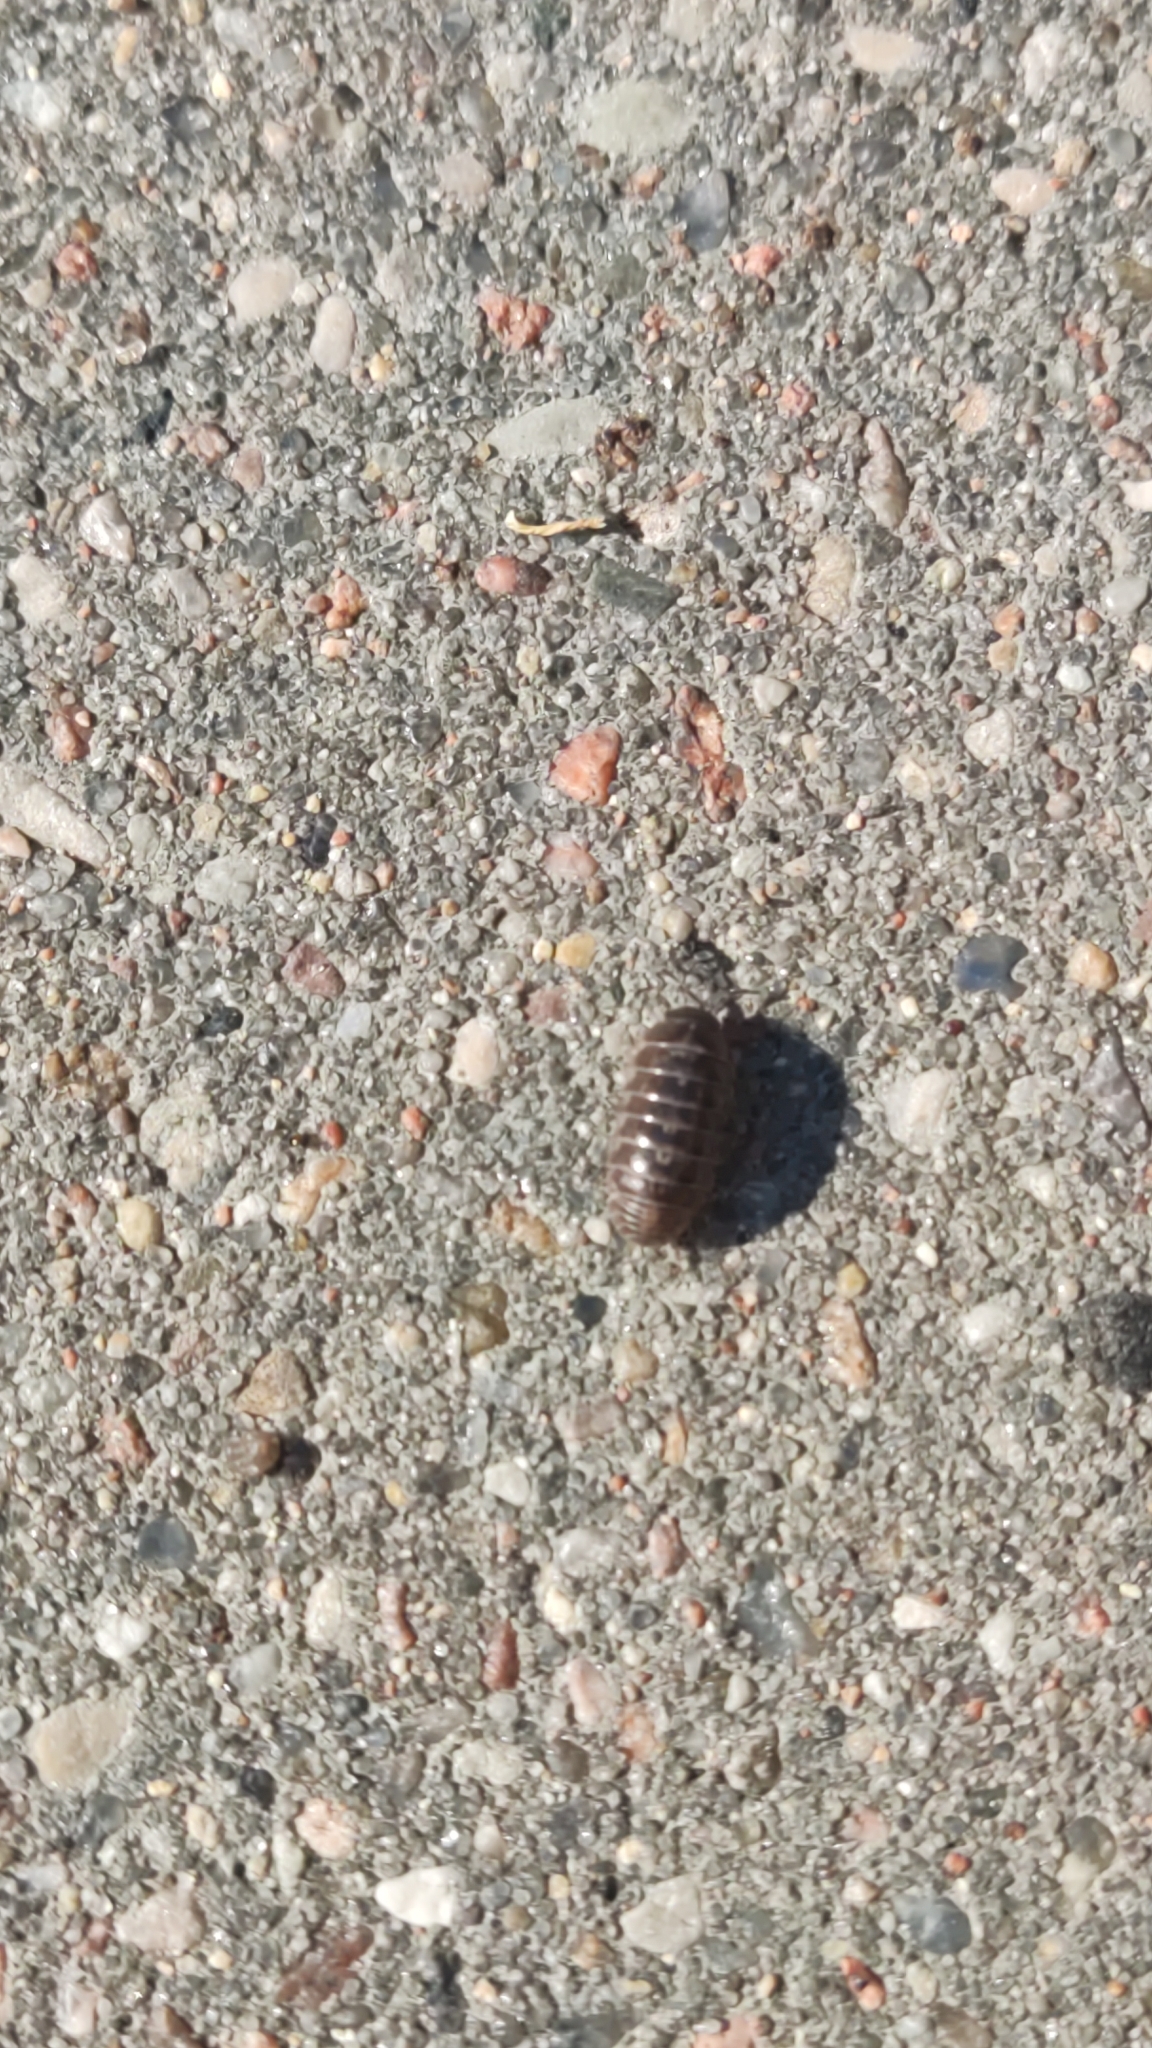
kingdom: Animalia
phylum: Arthropoda
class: Malacostraca
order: Isopoda
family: Armadillidiidae
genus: Armadillidium
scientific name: Armadillidium vulgare
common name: Common pill woodlouse
